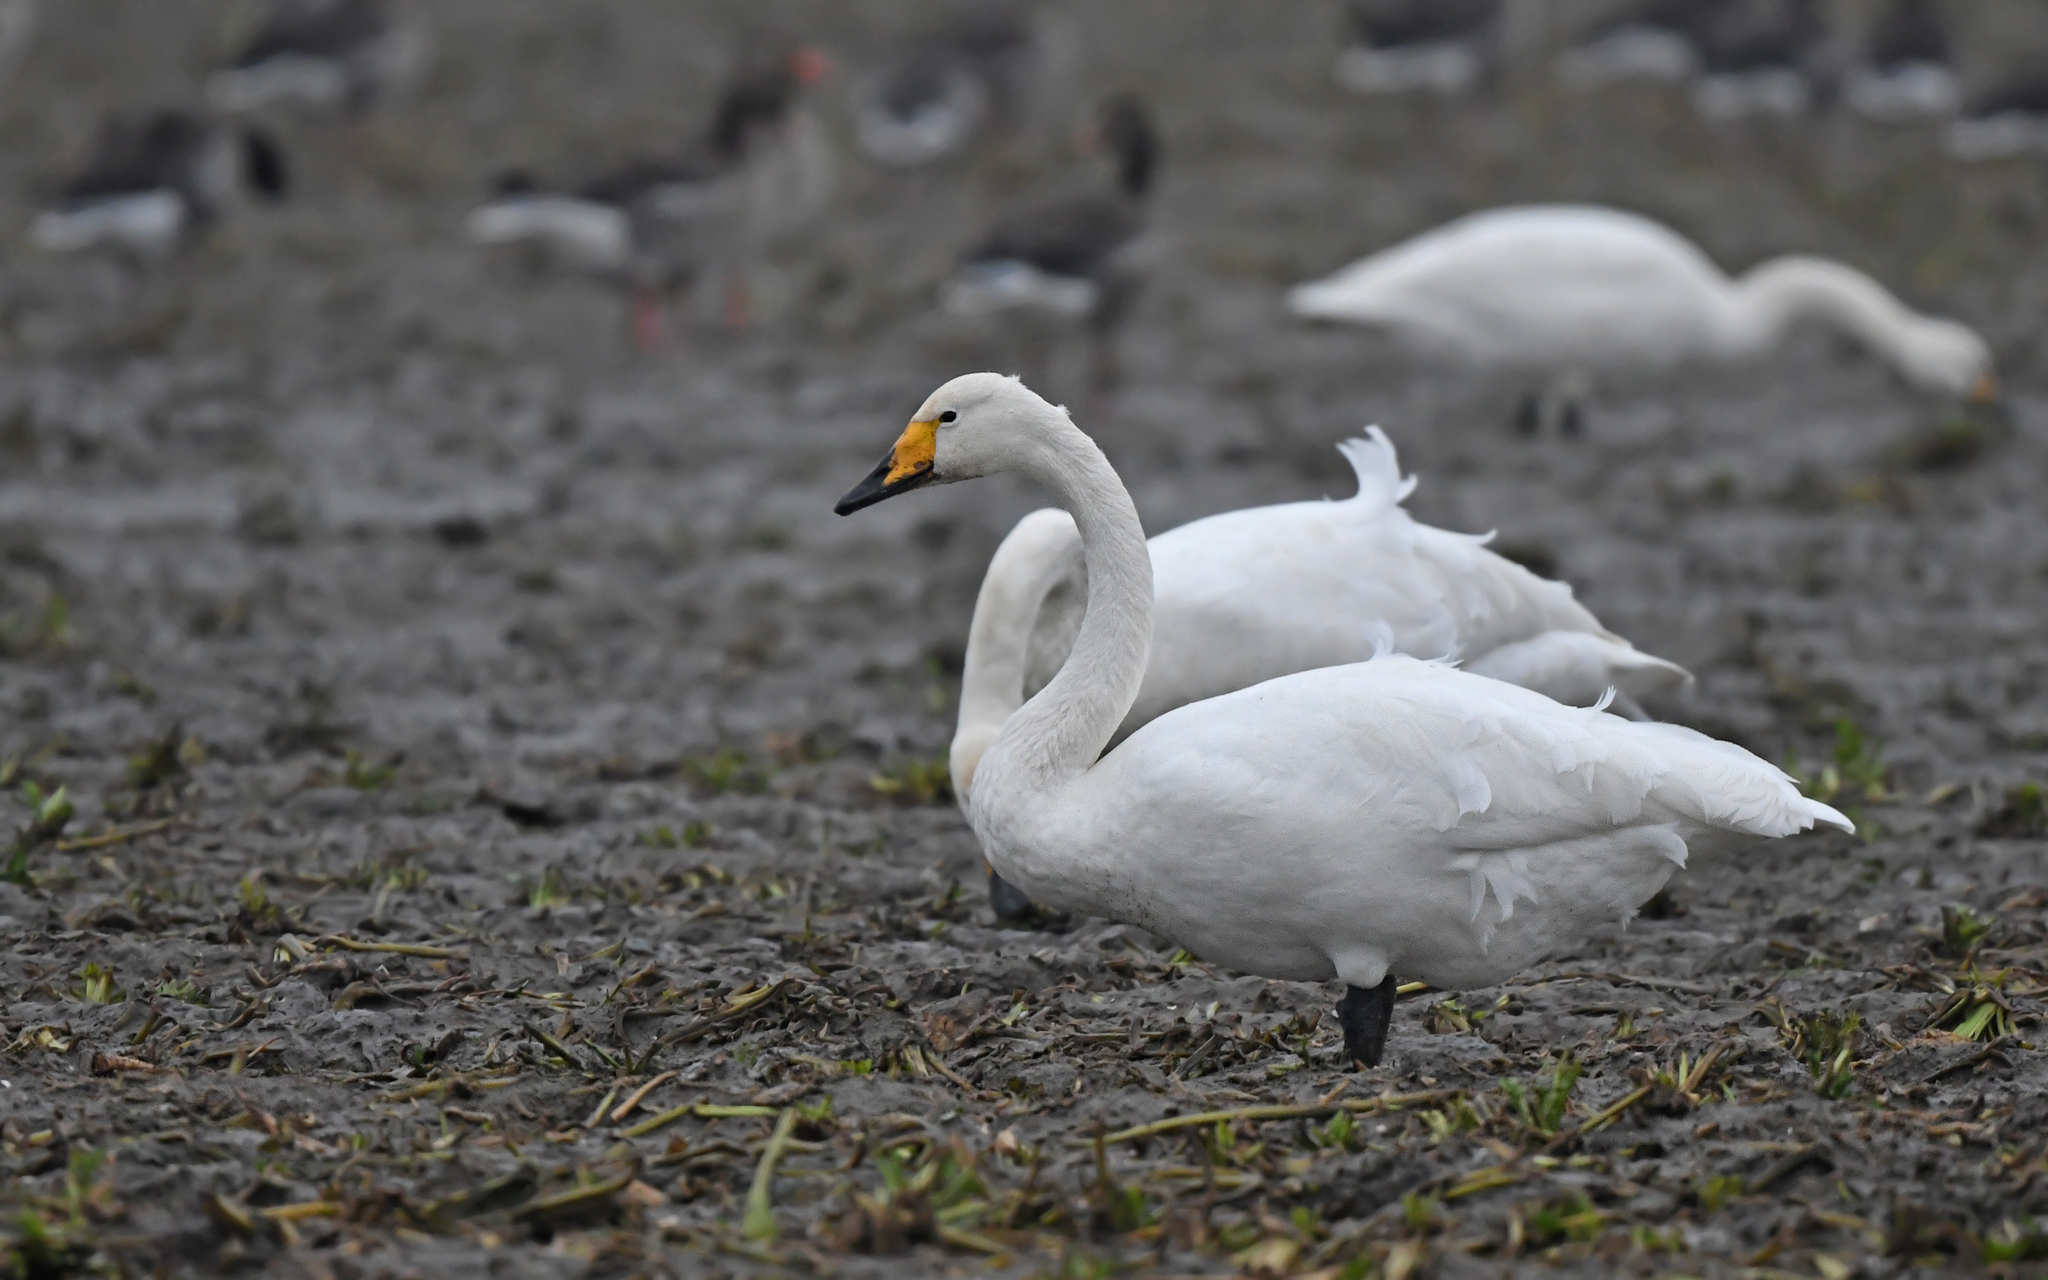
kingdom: Animalia
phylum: Chordata
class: Aves
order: Anseriformes
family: Anatidae
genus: Cygnus
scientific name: Cygnus cygnus
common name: Whooper swan
